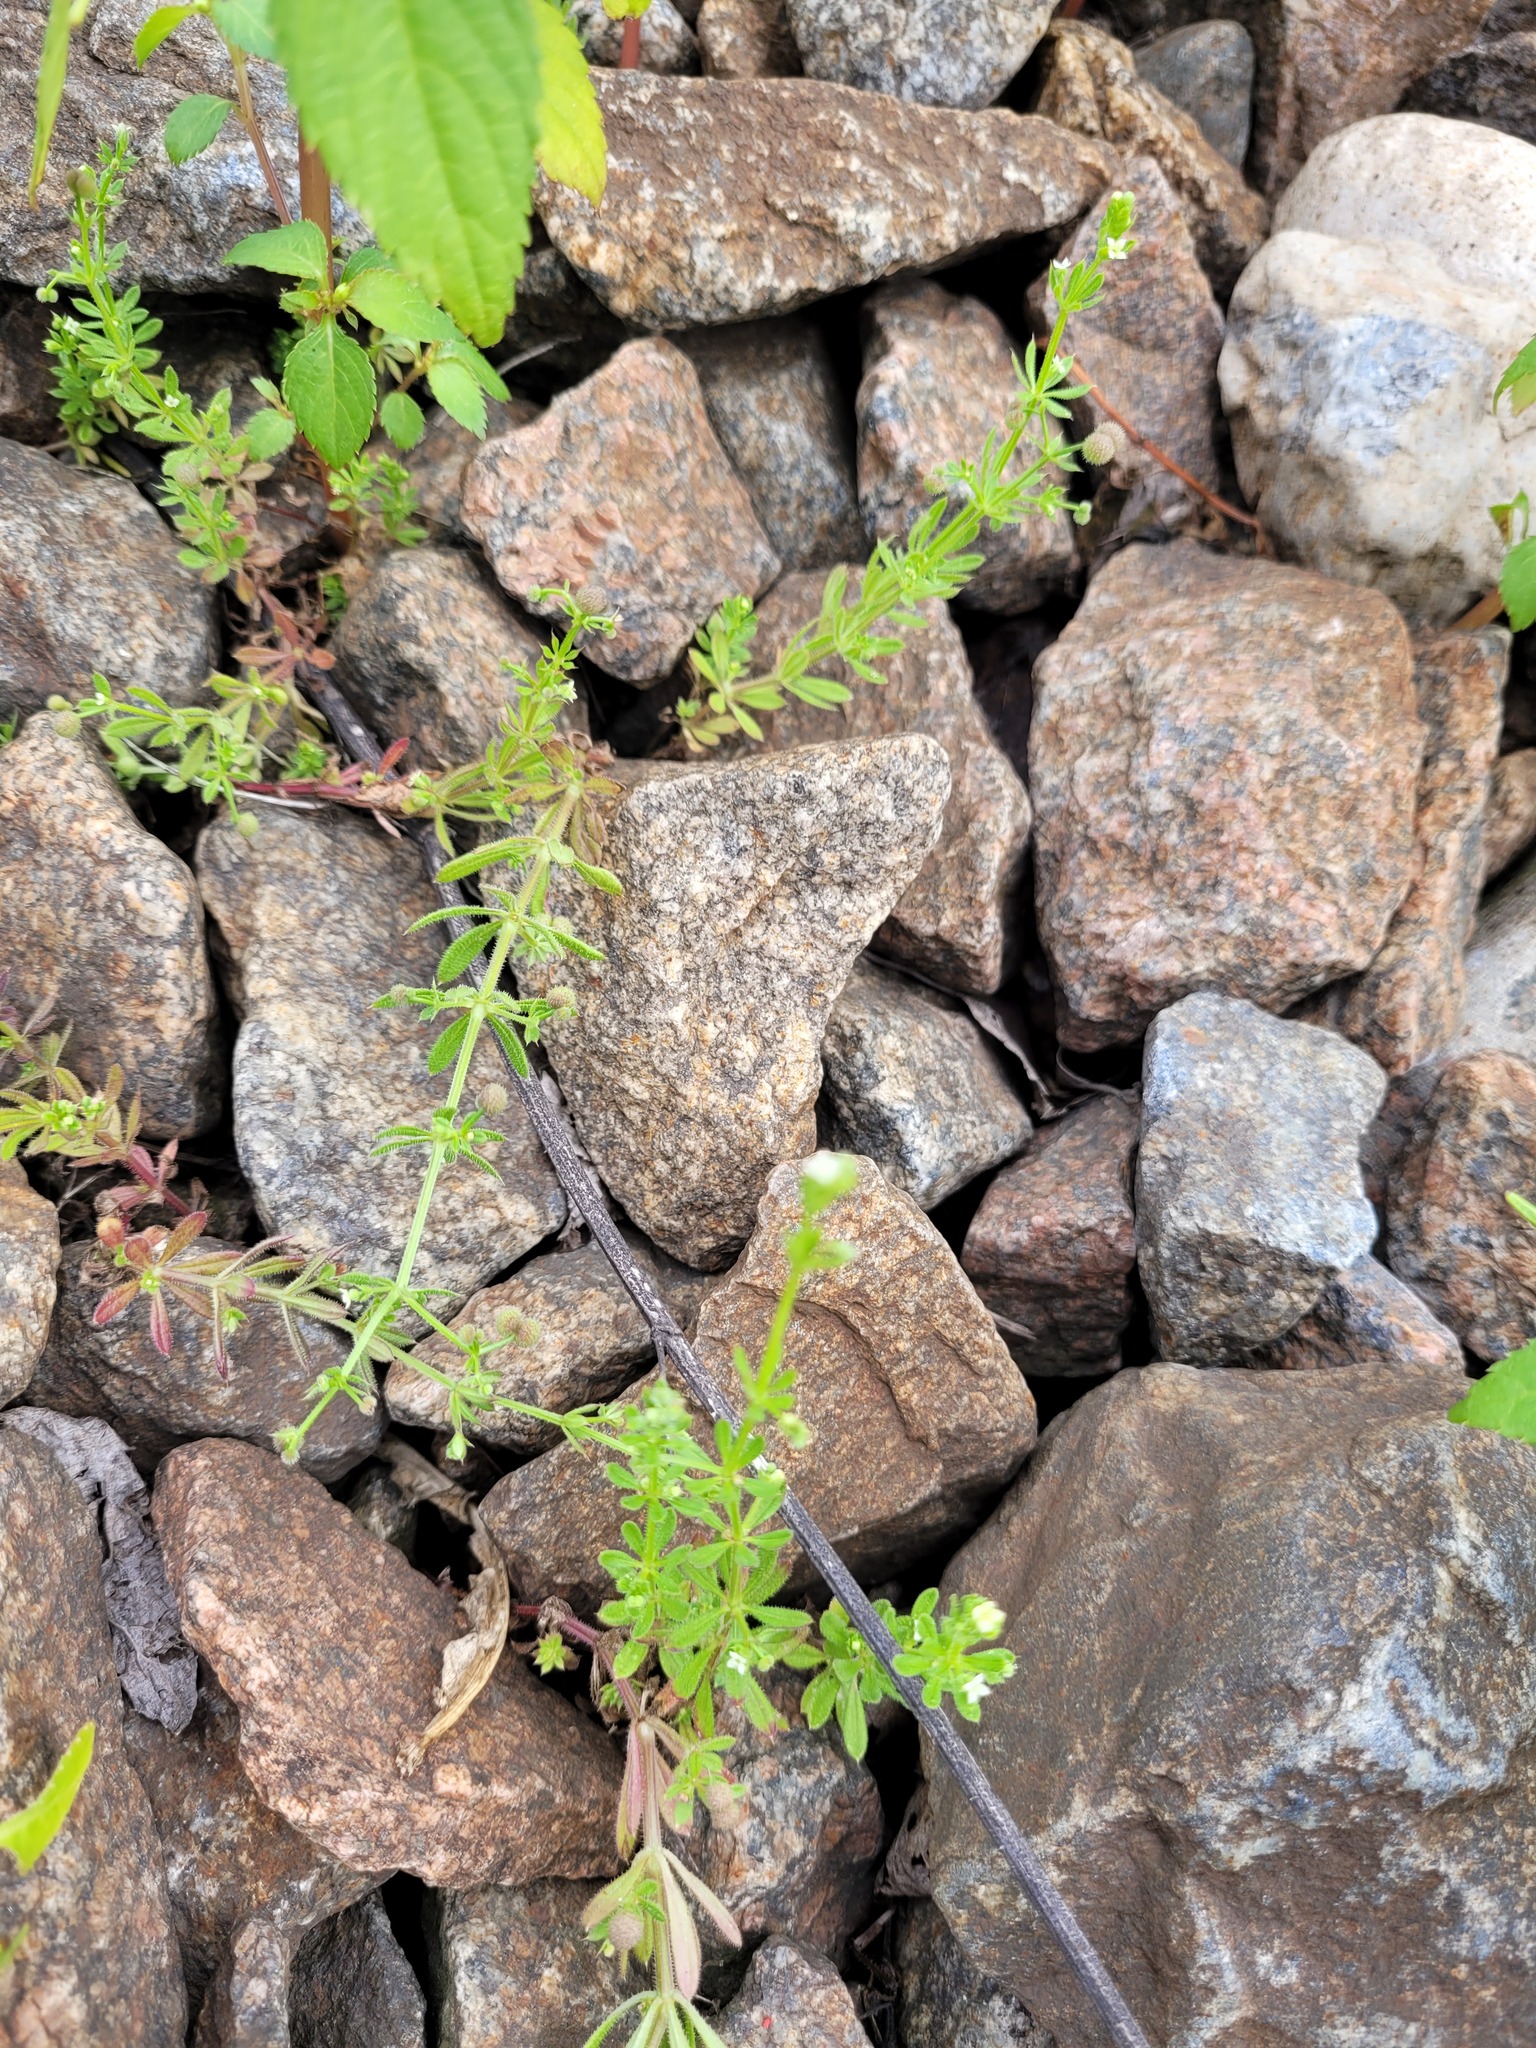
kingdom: Plantae
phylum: Tracheophyta
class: Magnoliopsida
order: Gentianales
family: Rubiaceae
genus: Galium
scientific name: Galium aparine
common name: Cleavers
